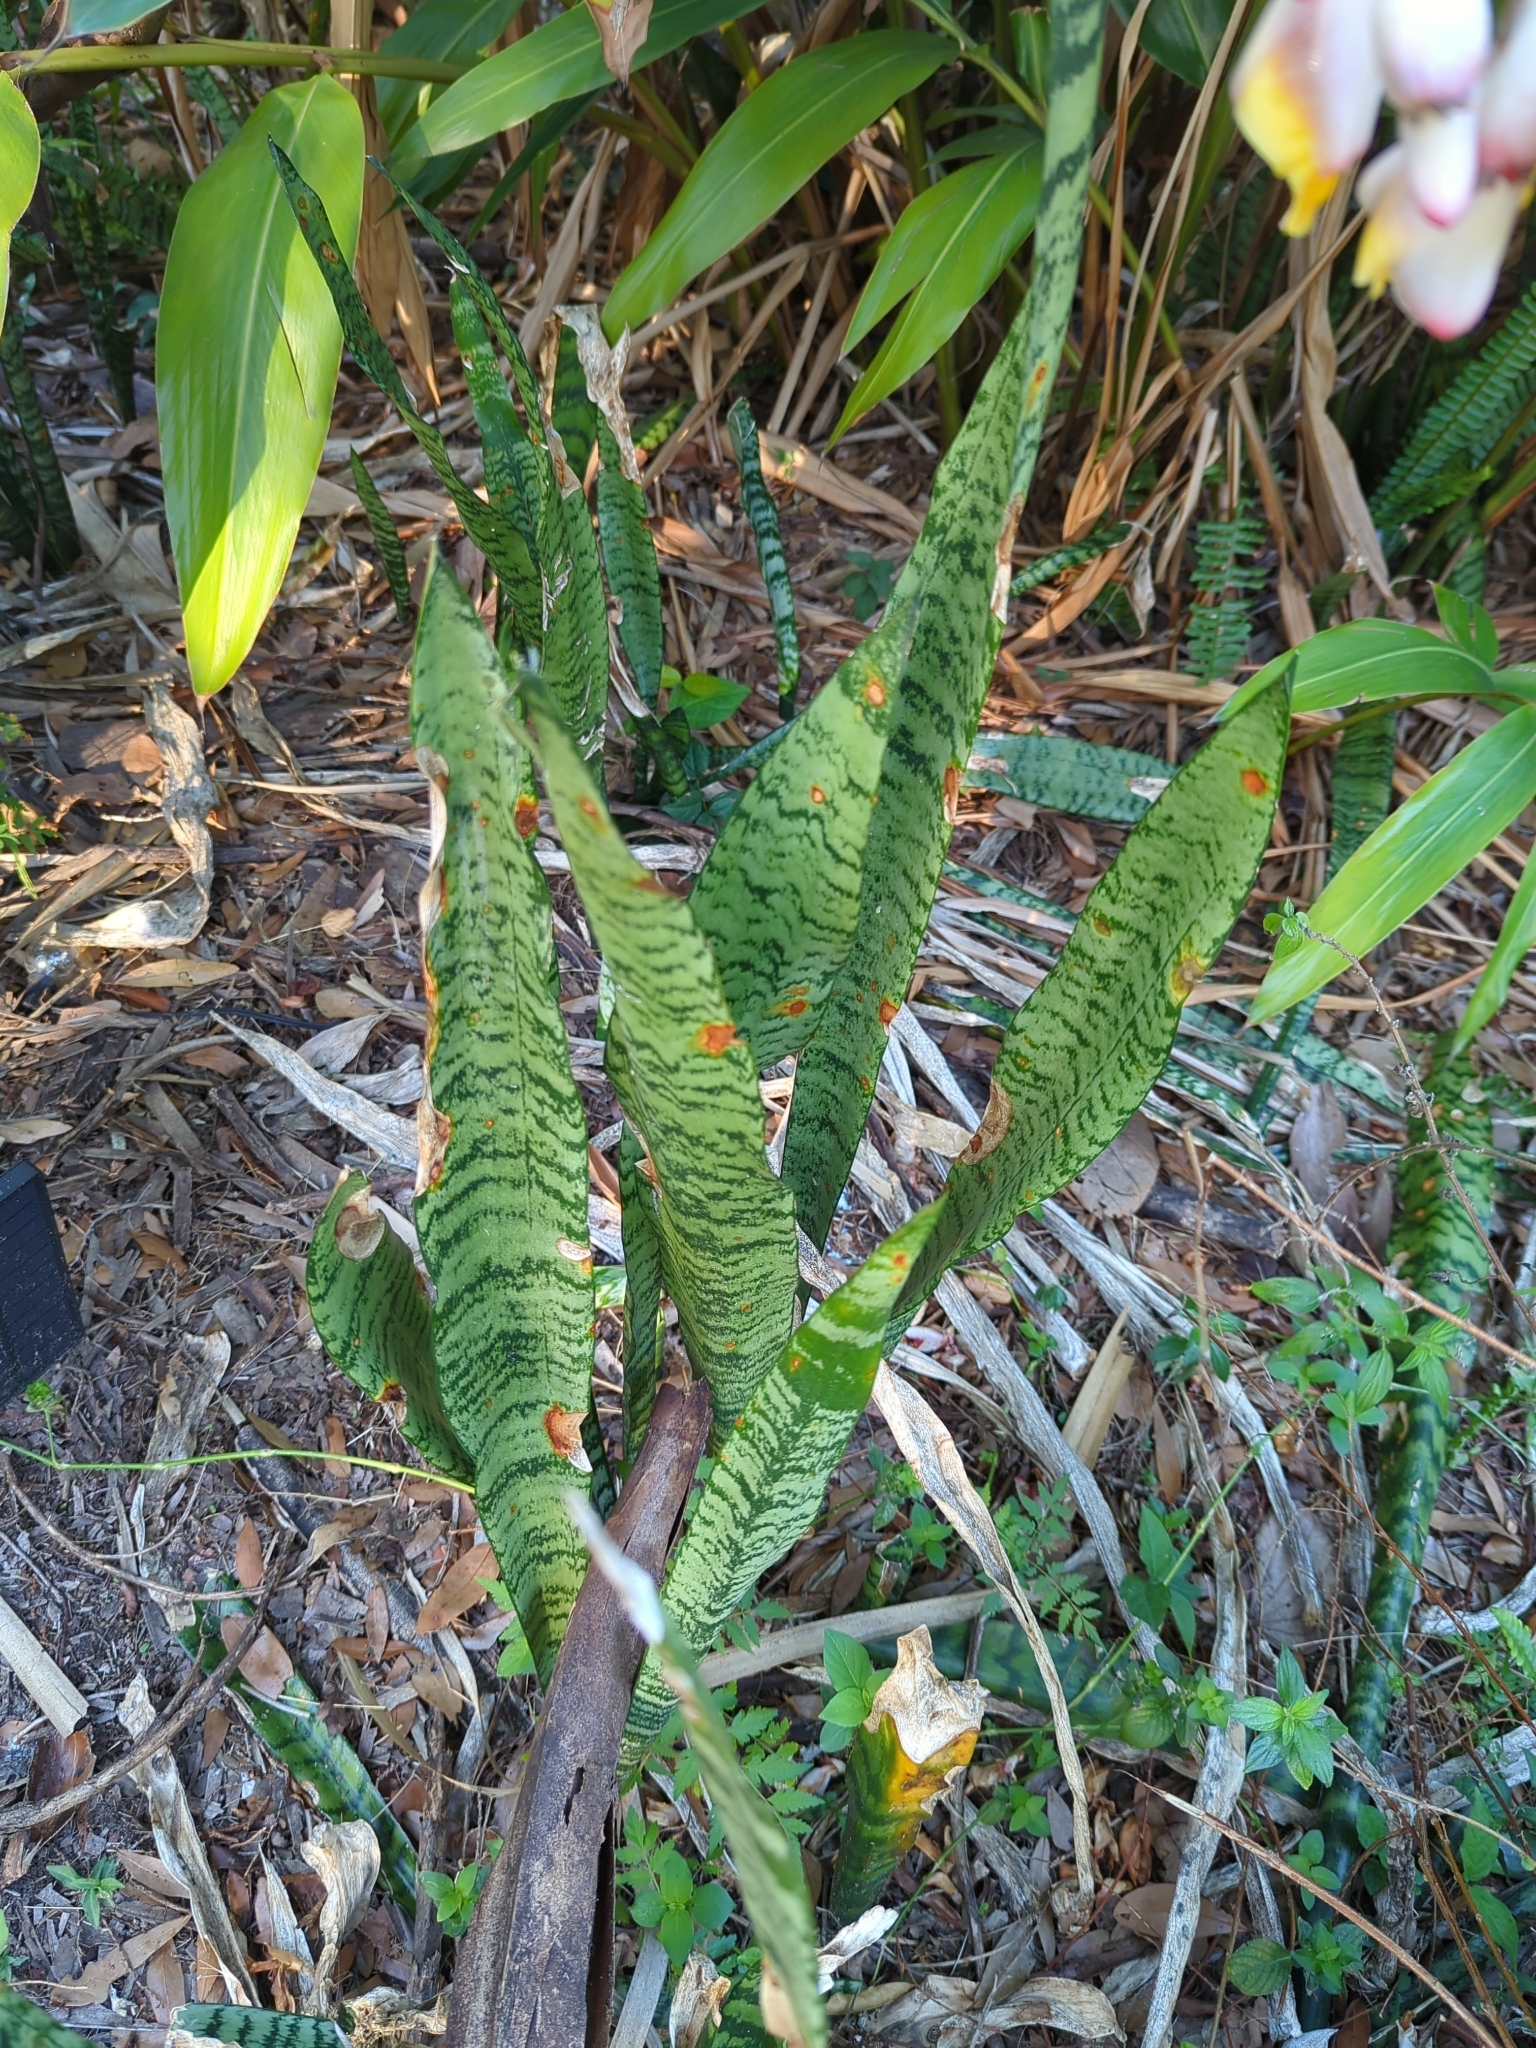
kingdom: Plantae
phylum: Tracheophyta
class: Liliopsida
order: Asparagales
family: Asparagaceae
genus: Dracaena
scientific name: Dracaena trifasciata
